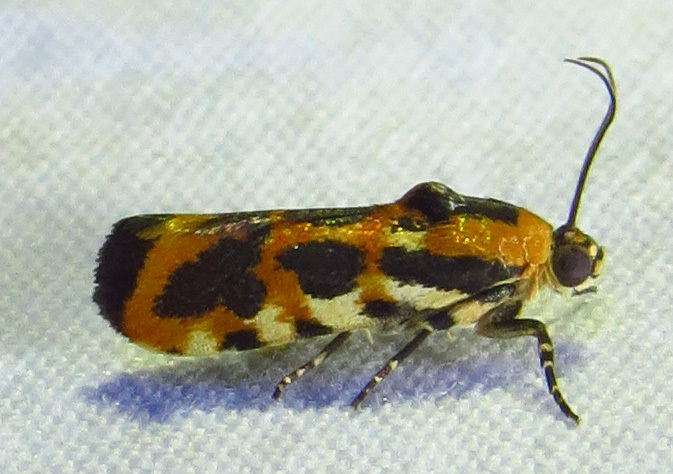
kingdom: Animalia
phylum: Arthropoda
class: Insecta
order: Lepidoptera
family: Noctuidae
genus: Acontia
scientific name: Acontia leo
